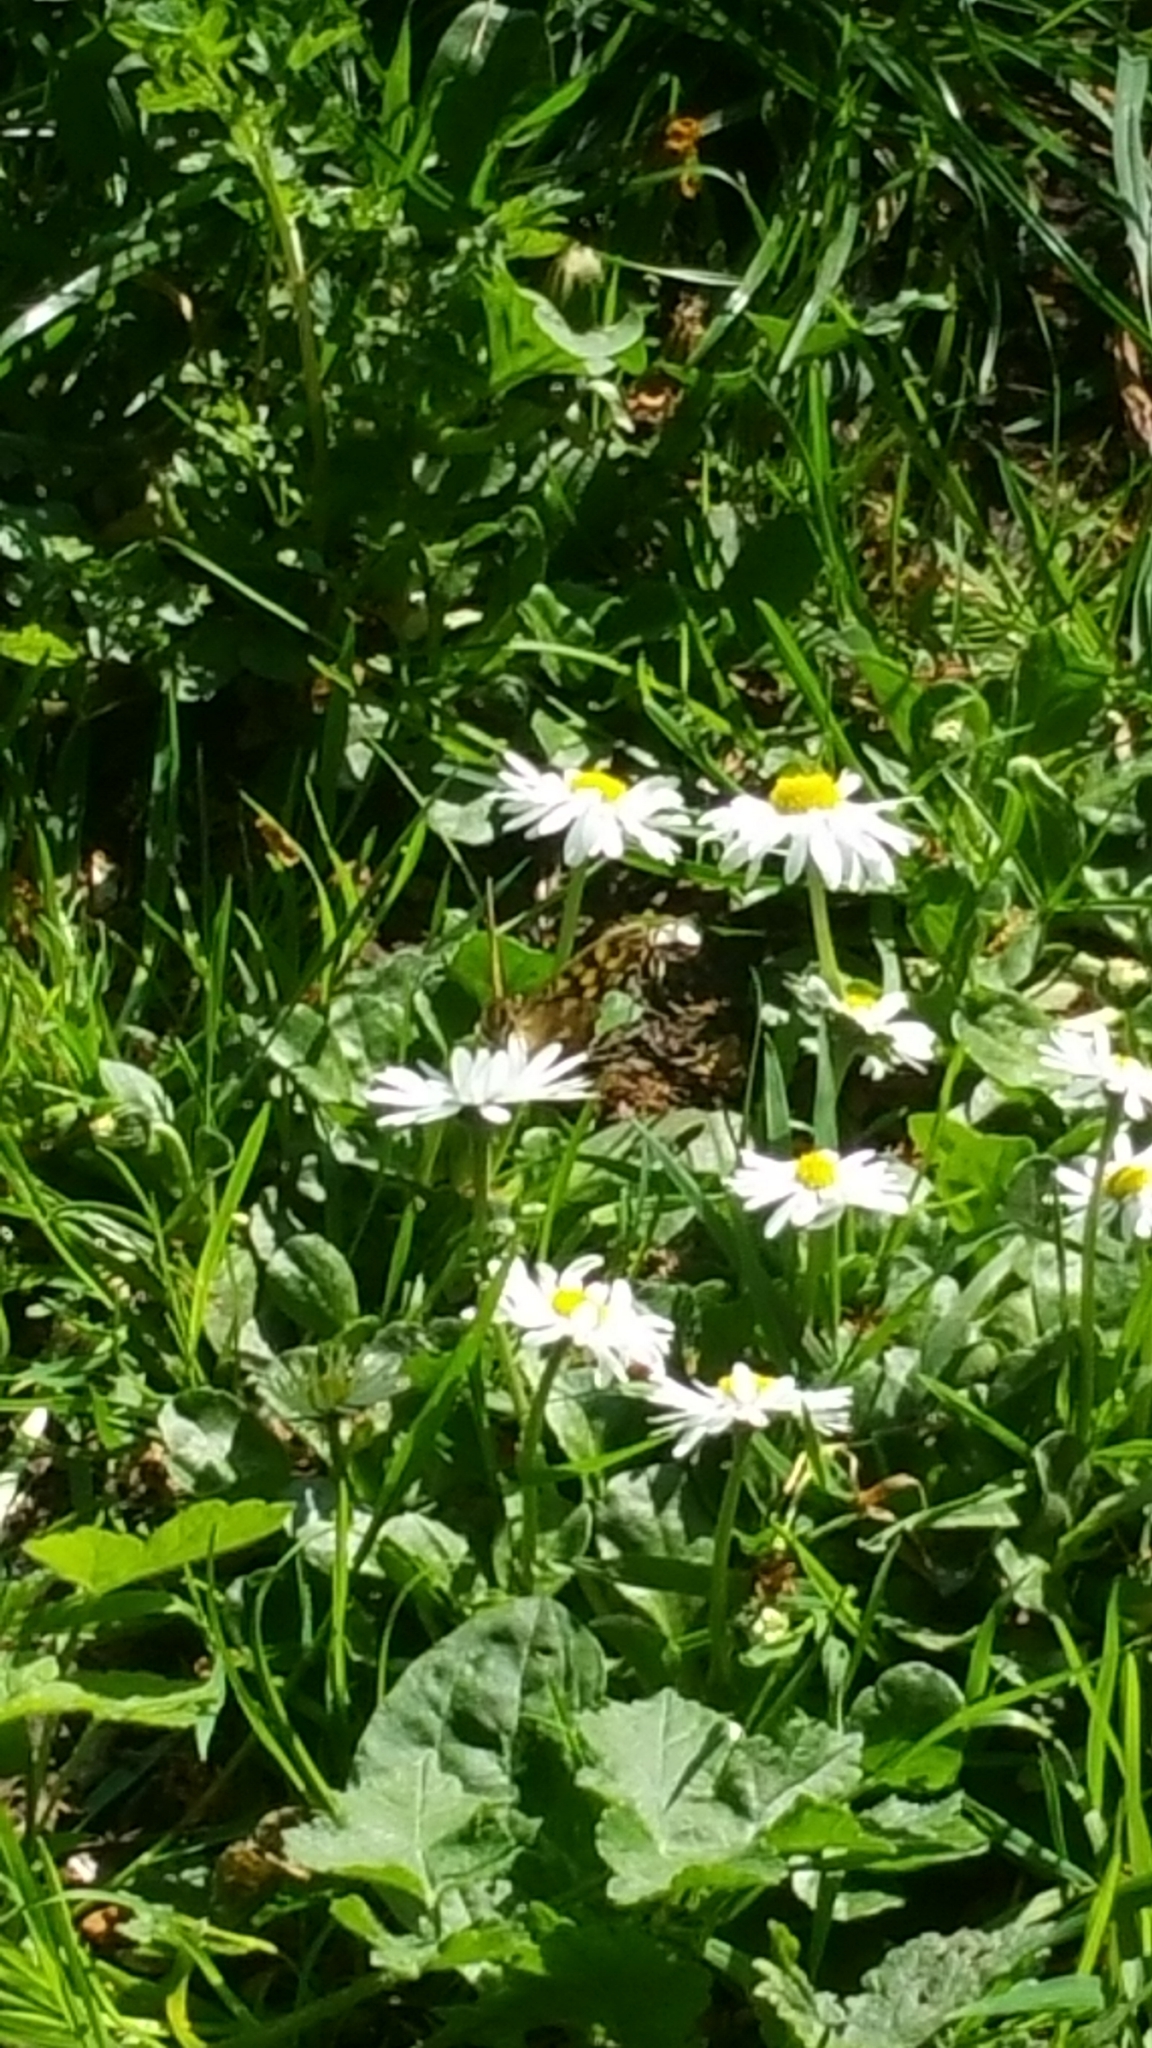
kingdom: Plantae
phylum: Tracheophyta
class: Magnoliopsida
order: Asterales
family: Asteraceae
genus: Bellis
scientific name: Bellis perennis
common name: Lawndaisy
